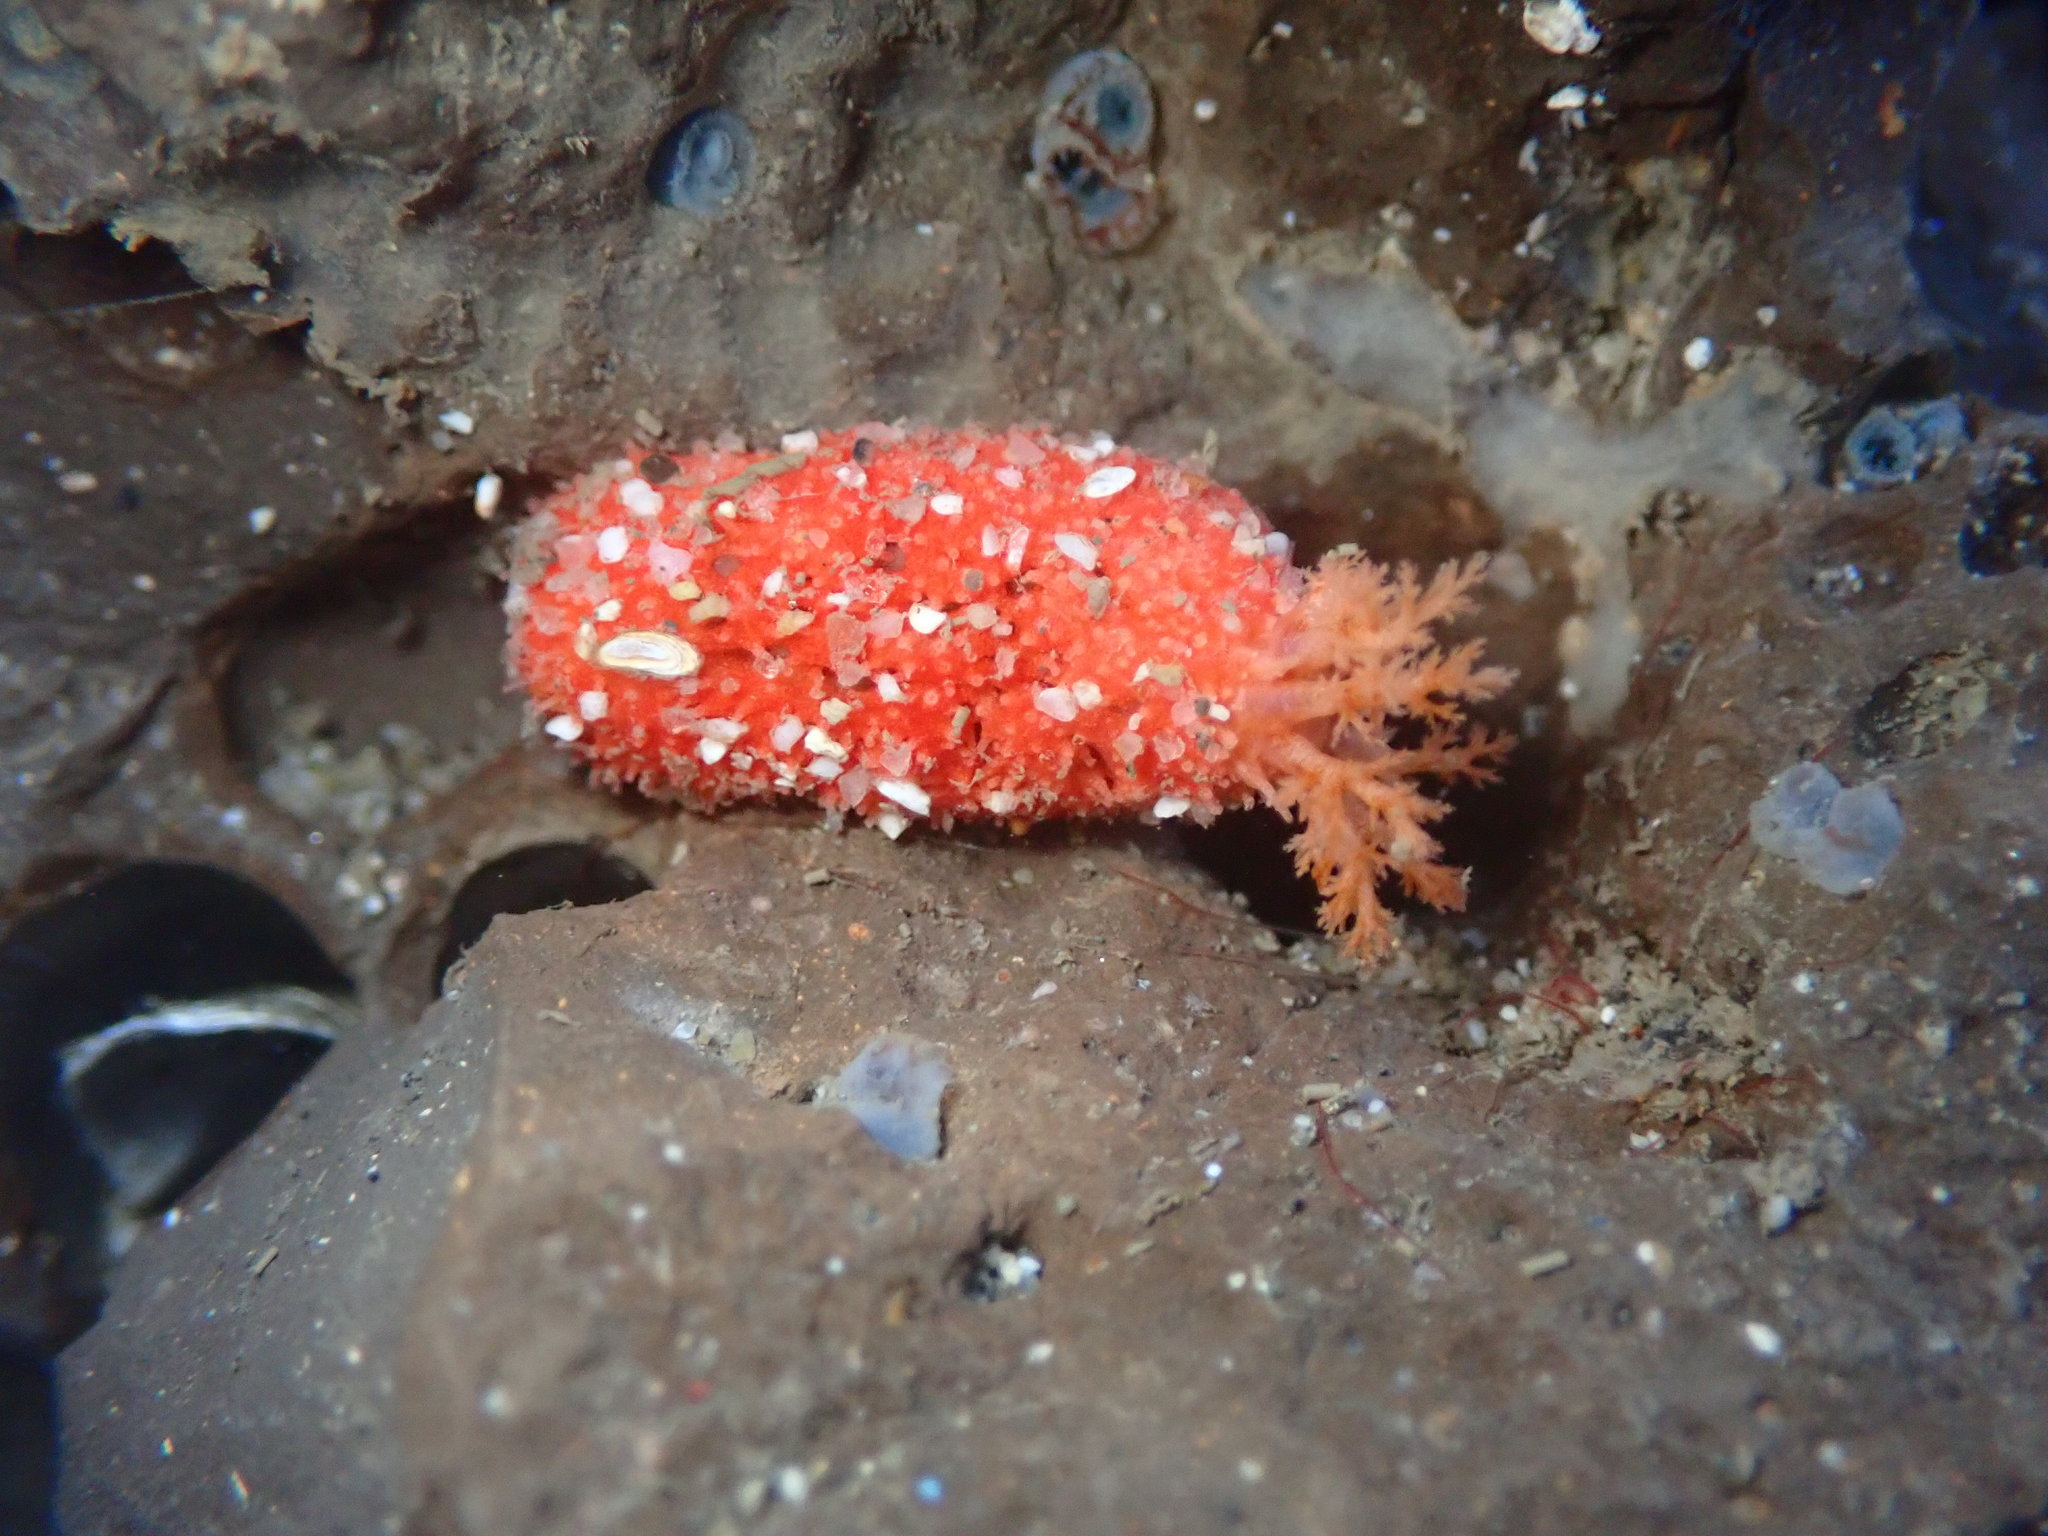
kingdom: Animalia
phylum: Echinodermata
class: Holothuroidea
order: Dendrochirotida
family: Psolidae
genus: Lissothuria
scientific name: Lissothuria nutriens
